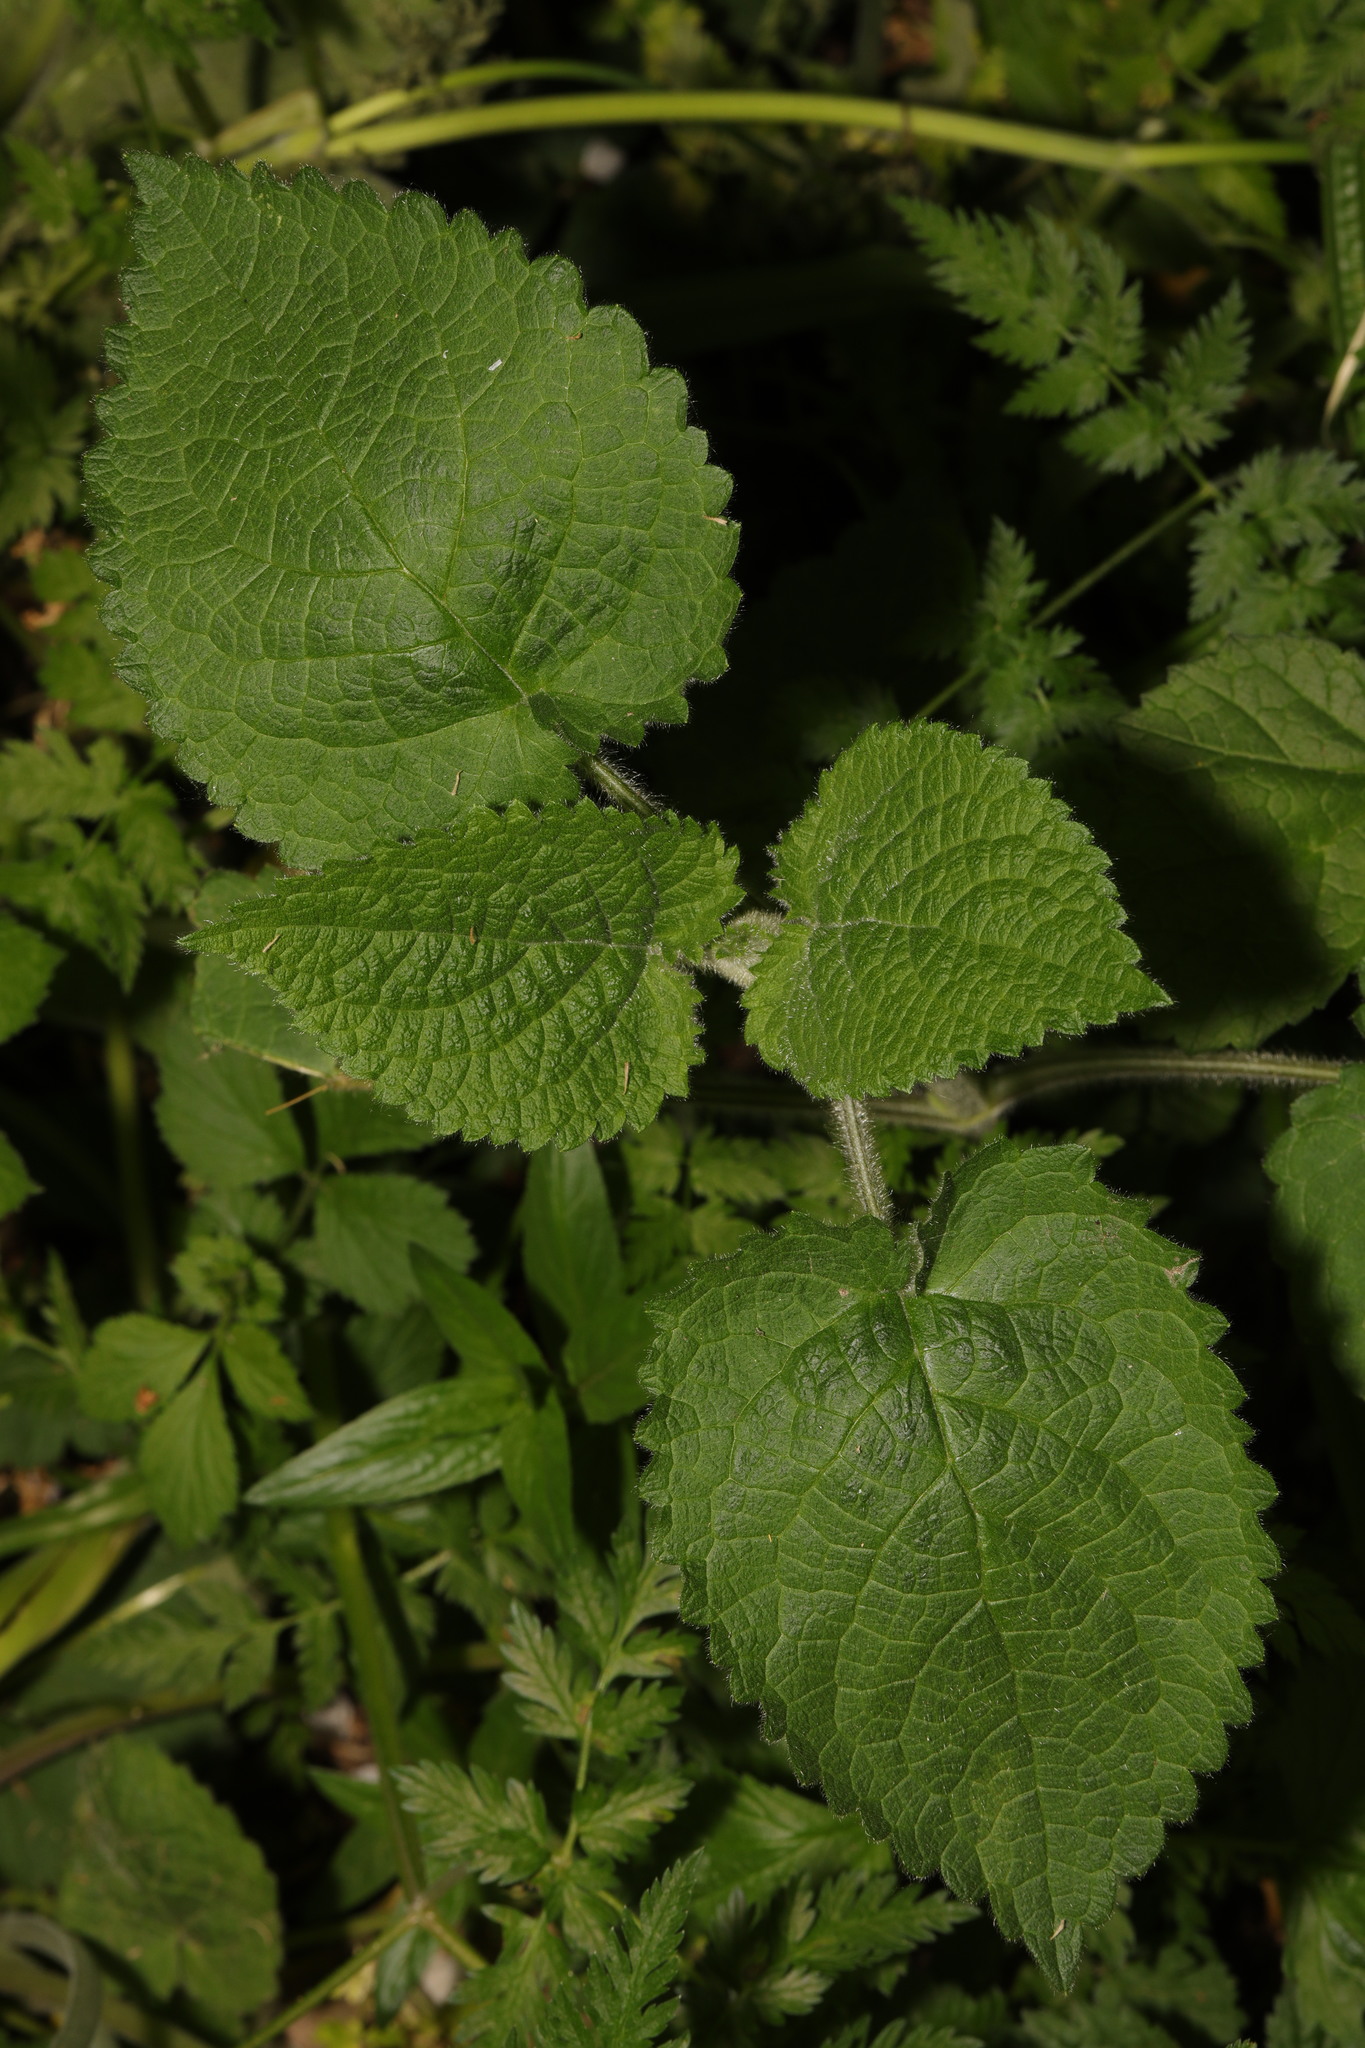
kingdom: Plantae
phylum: Tracheophyta
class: Magnoliopsida
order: Lamiales
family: Lamiaceae
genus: Stachys
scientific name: Stachys sylvatica
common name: Hedge woundwort
